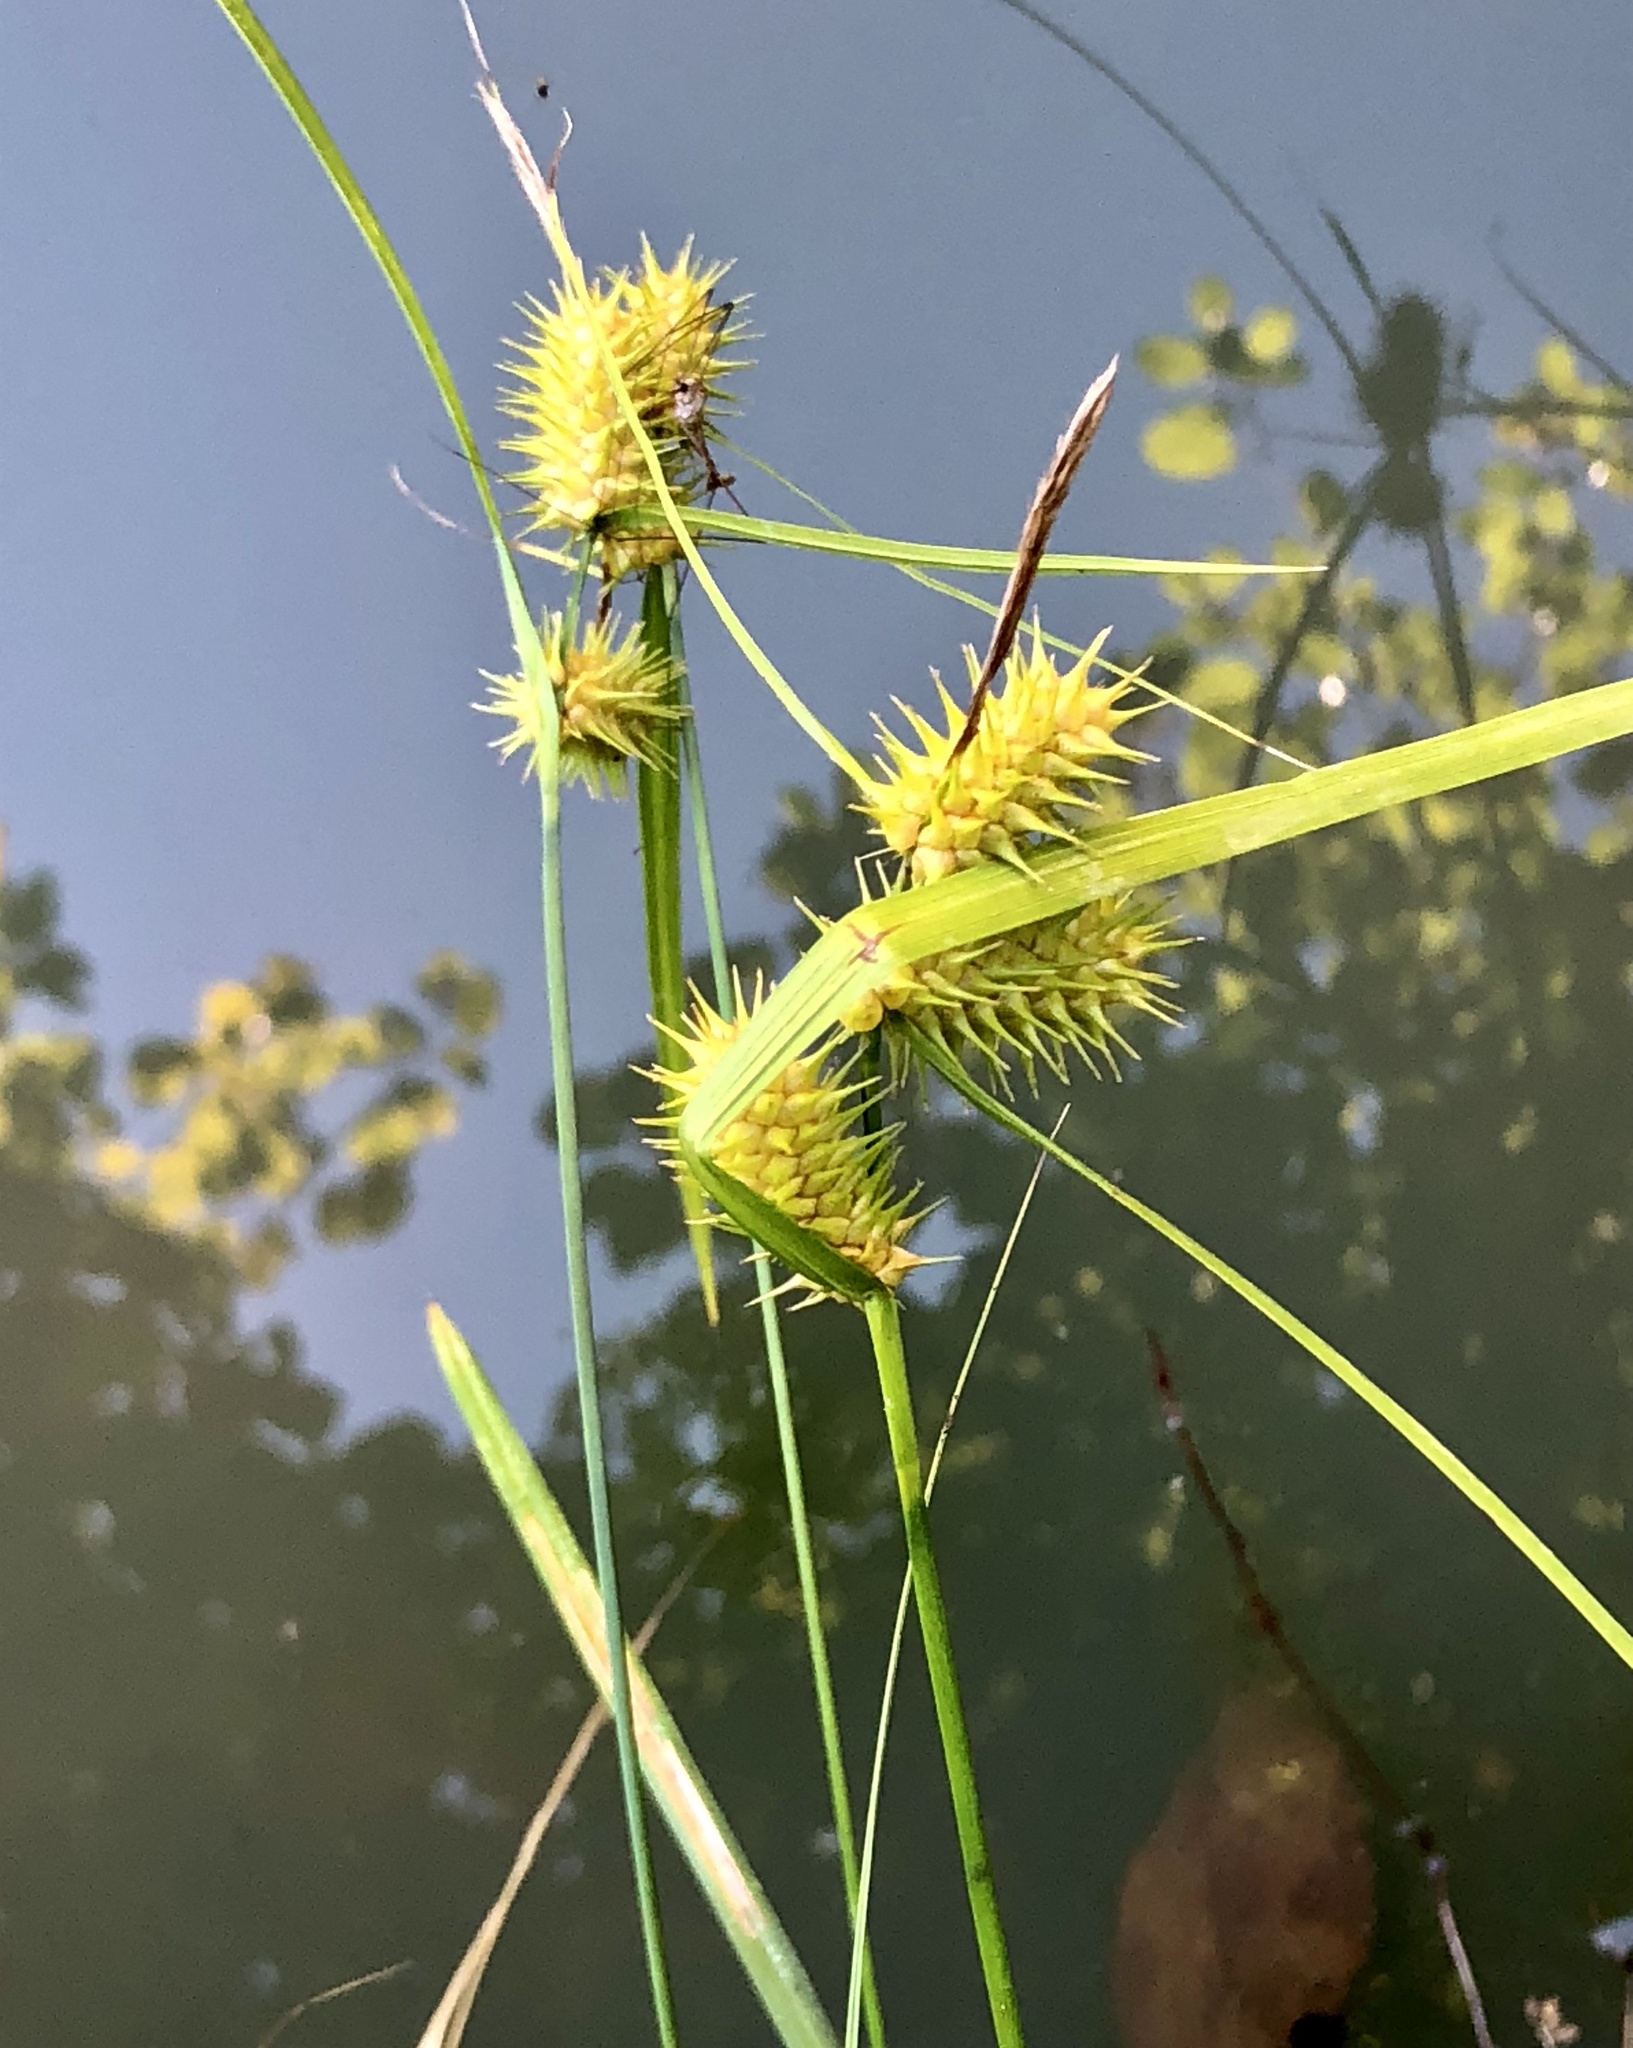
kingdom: Plantae
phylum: Tracheophyta
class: Liliopsida
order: Poales
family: Cyperaceae
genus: Carex
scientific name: Carex lurida
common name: Sallow sedge
